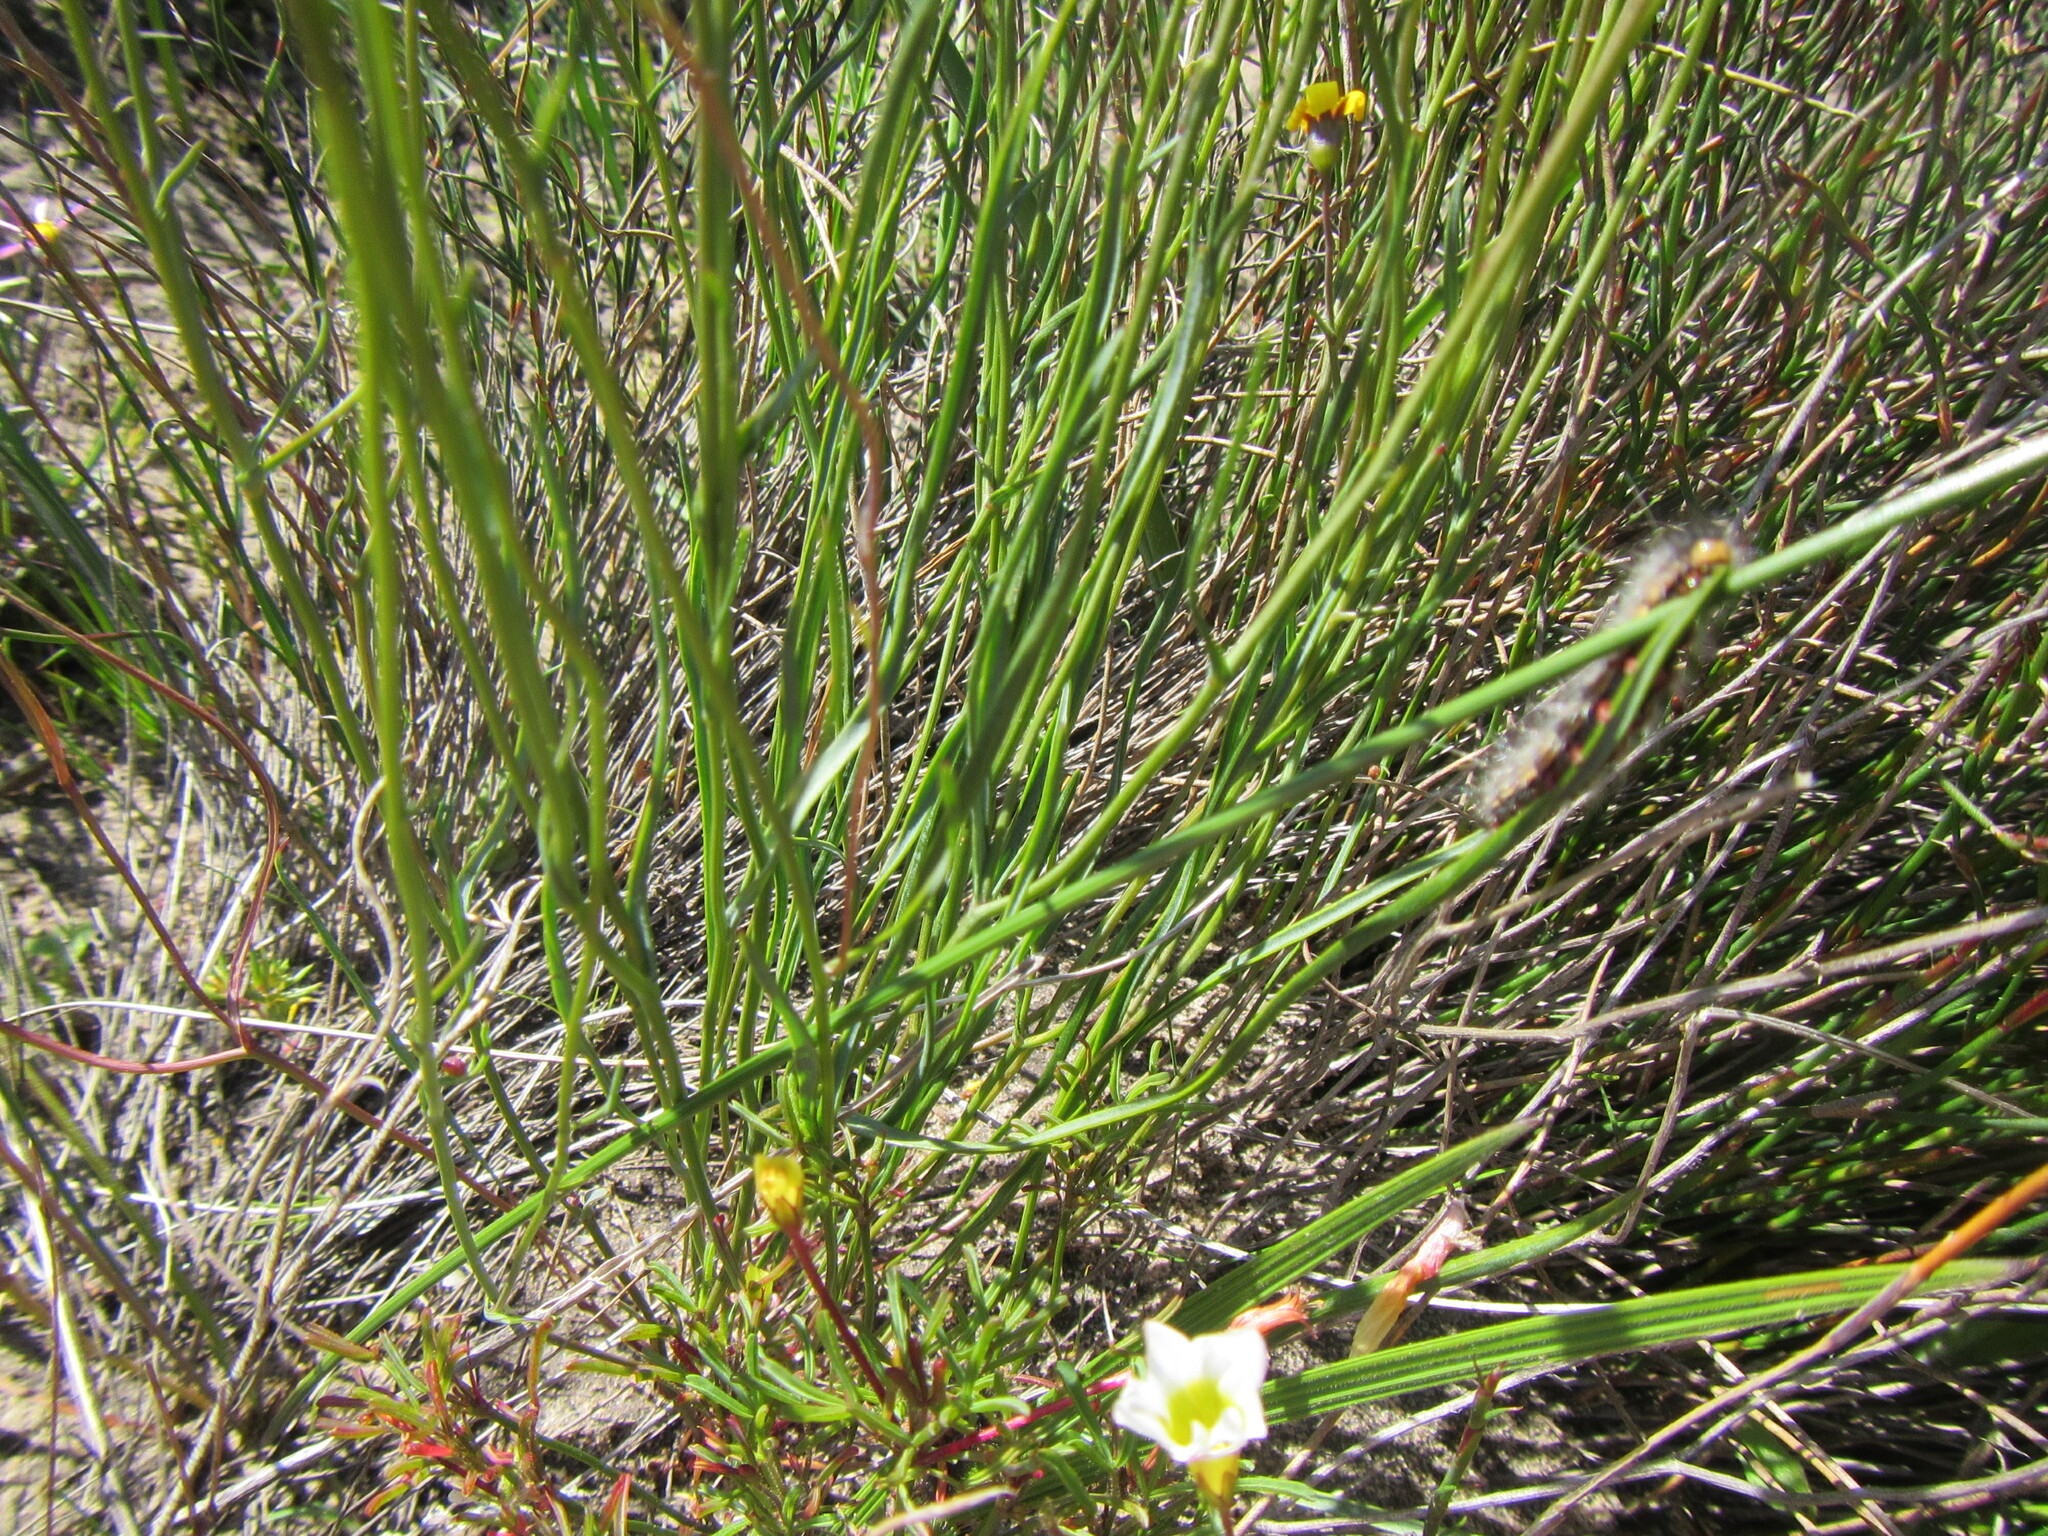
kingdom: Plantae
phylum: Tracheophyta
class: Magnoliopsida
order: Asterales
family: Asteraceae
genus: Othonna
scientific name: Othonna stenophylla
